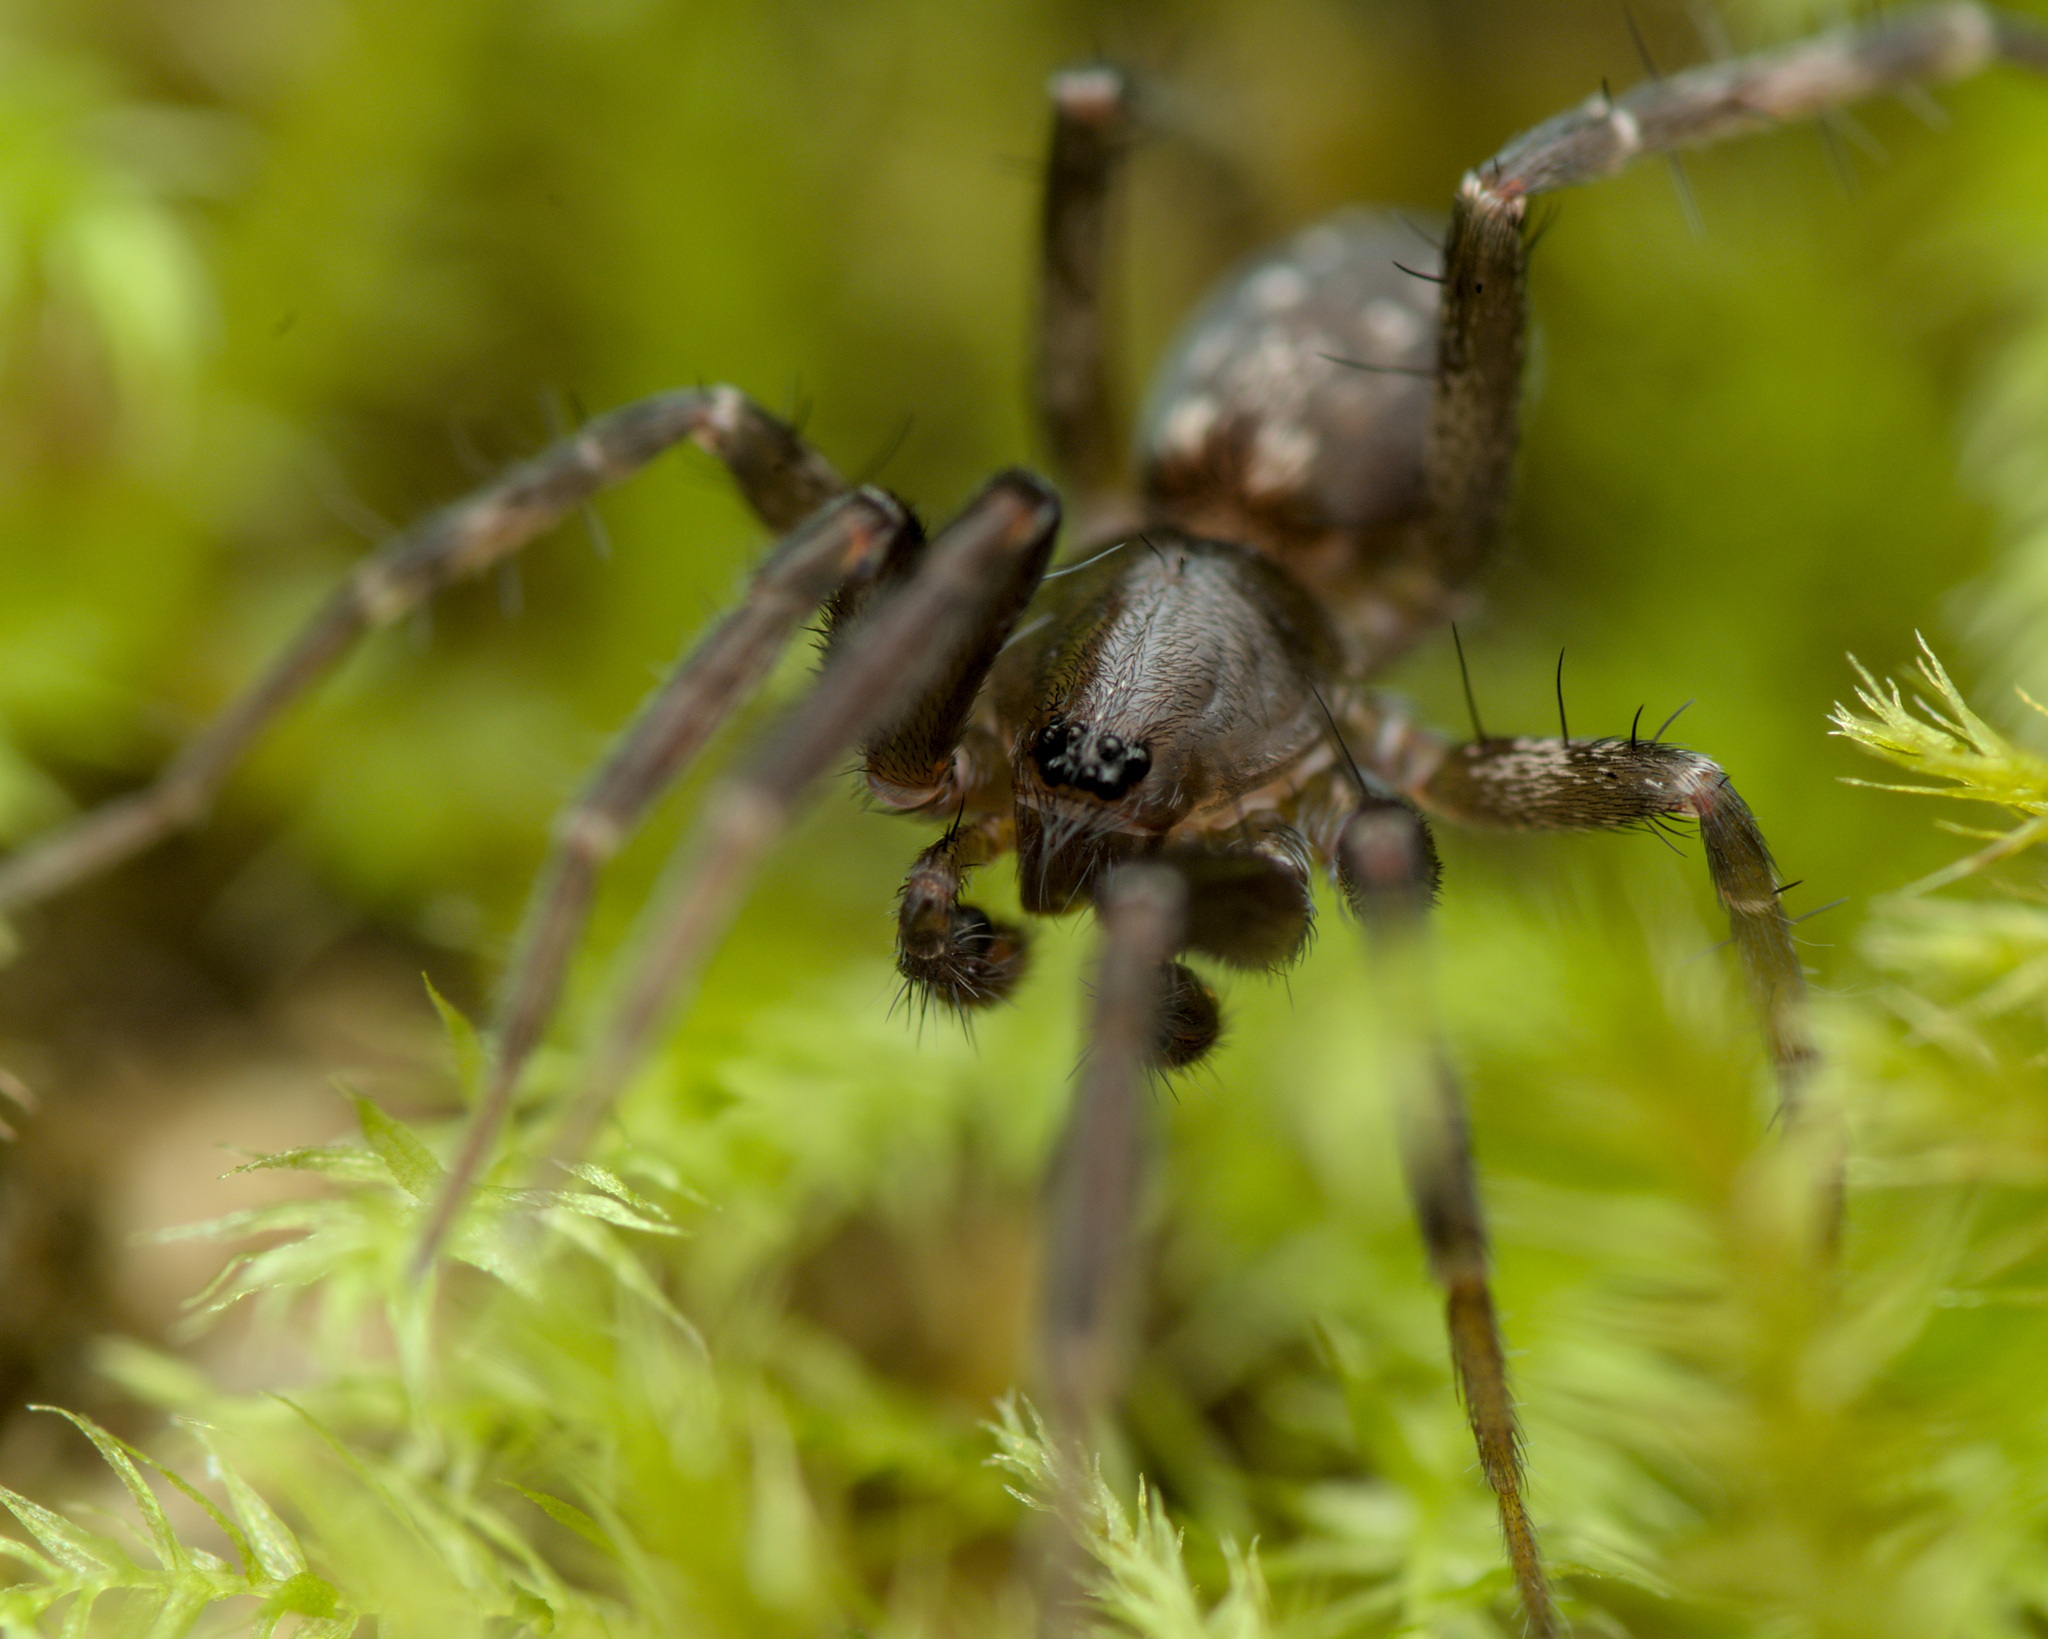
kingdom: Animalia
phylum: Arthropoda
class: Arachnida
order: Araneae
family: Liocranidae
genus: Apostenus
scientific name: Apostenus fuscus
